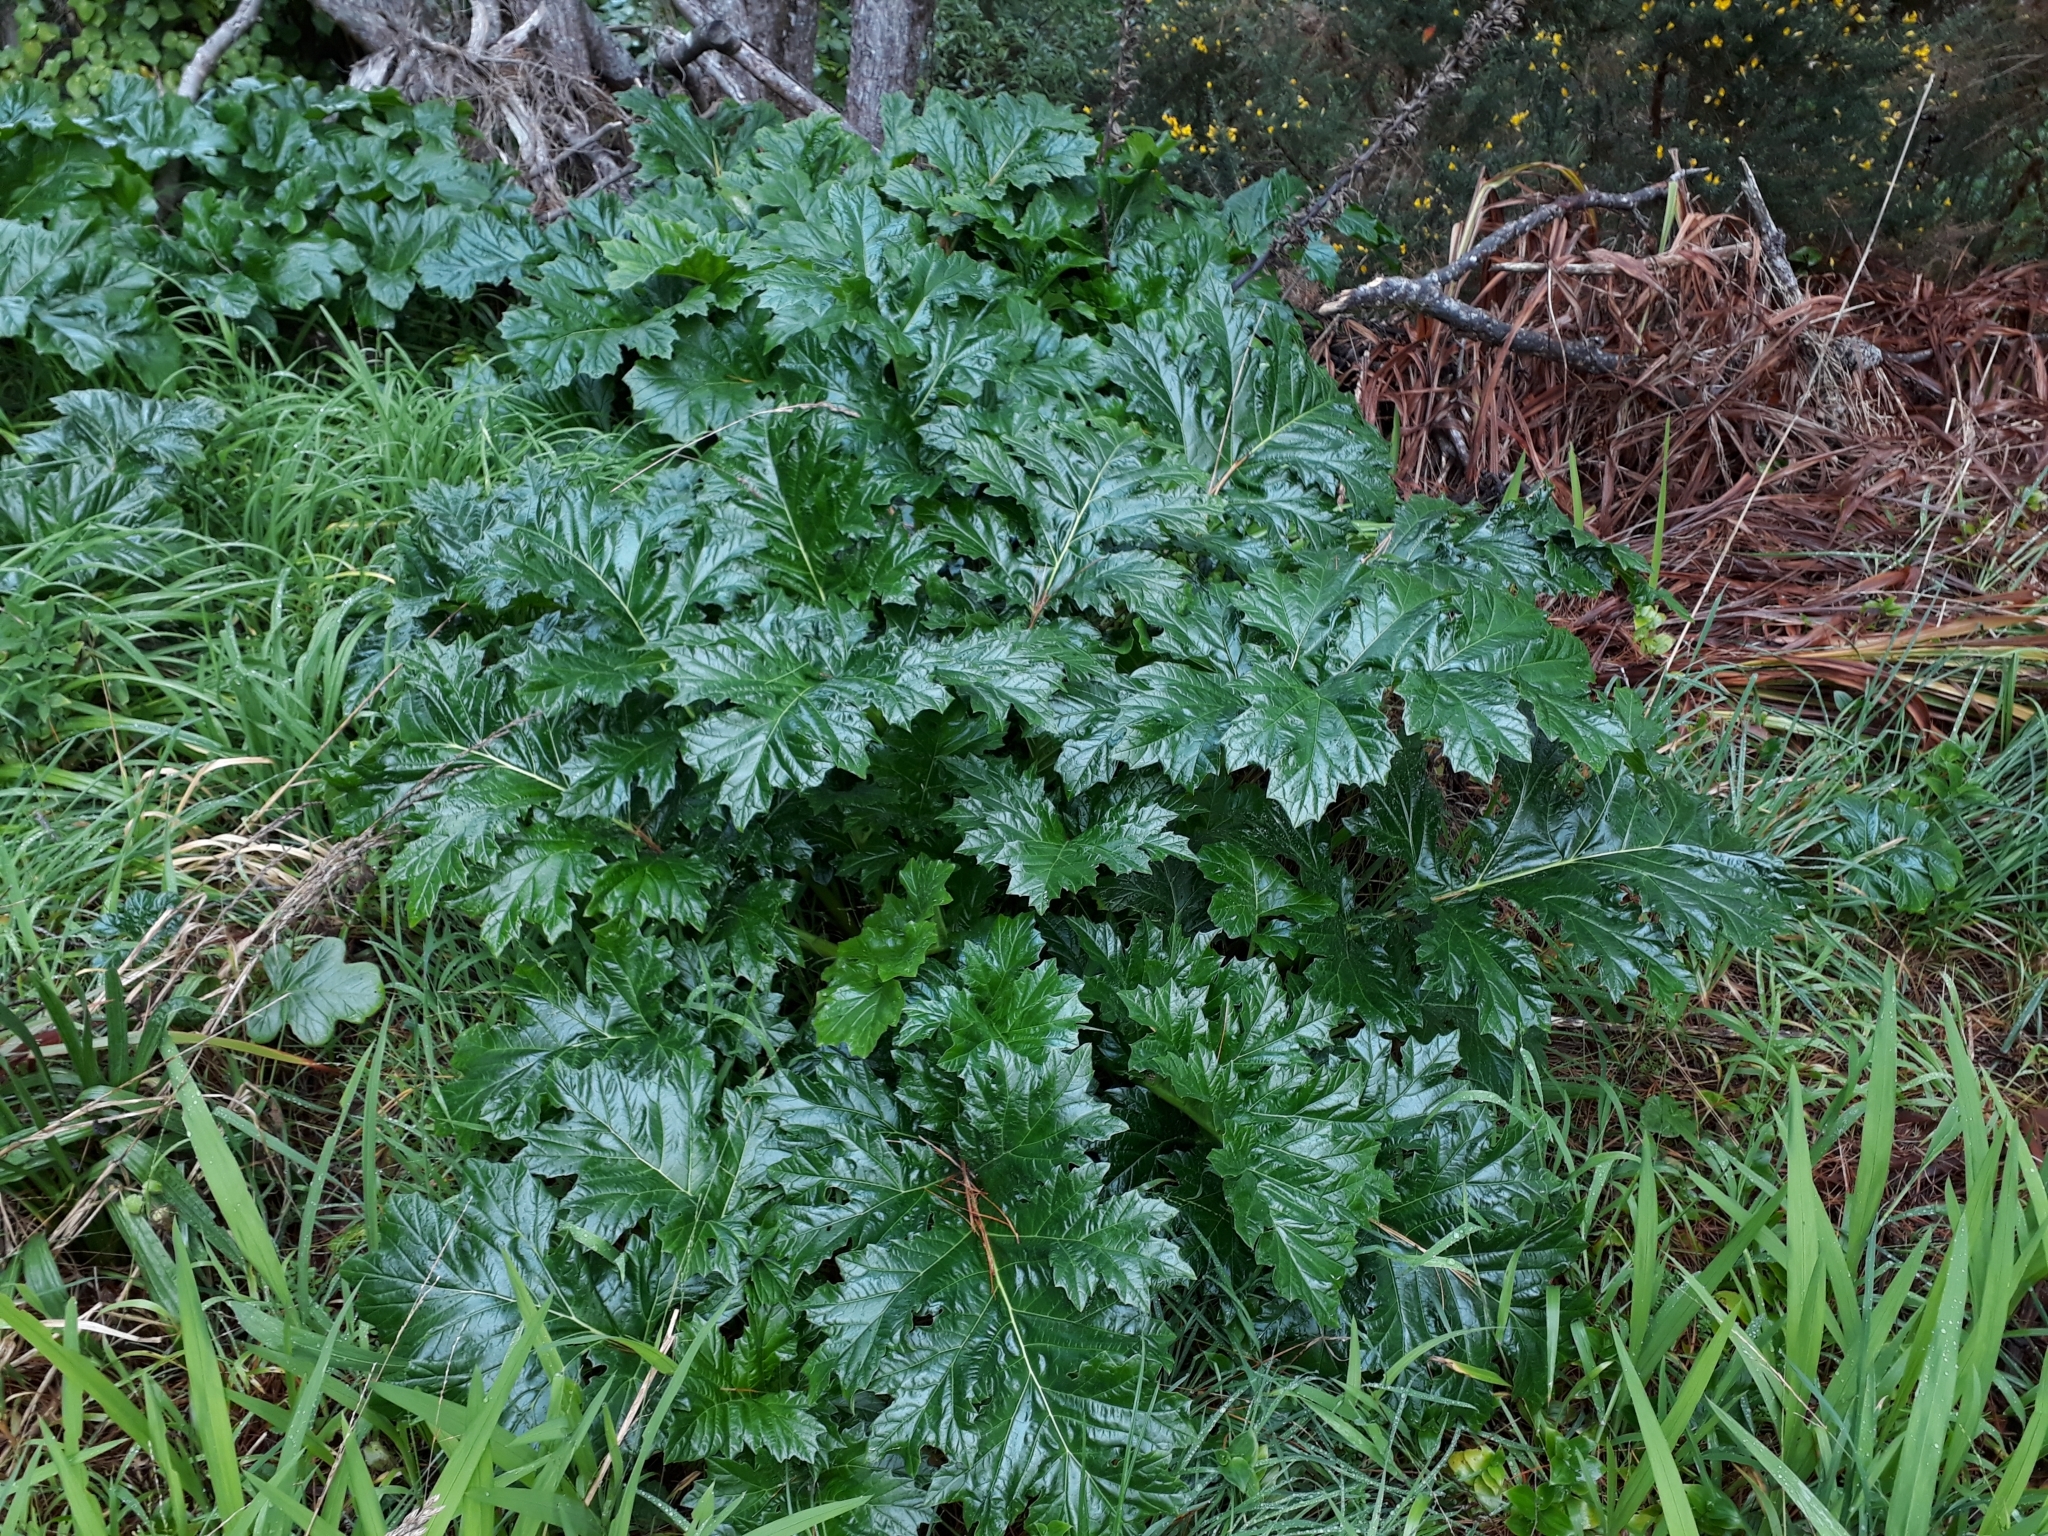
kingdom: Plantae
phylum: Tracheophyta
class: Magnoliopsida
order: Lamiales
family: Acanthaceae
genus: Acanthus
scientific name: Acanthus mollis
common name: Bear's-breech
